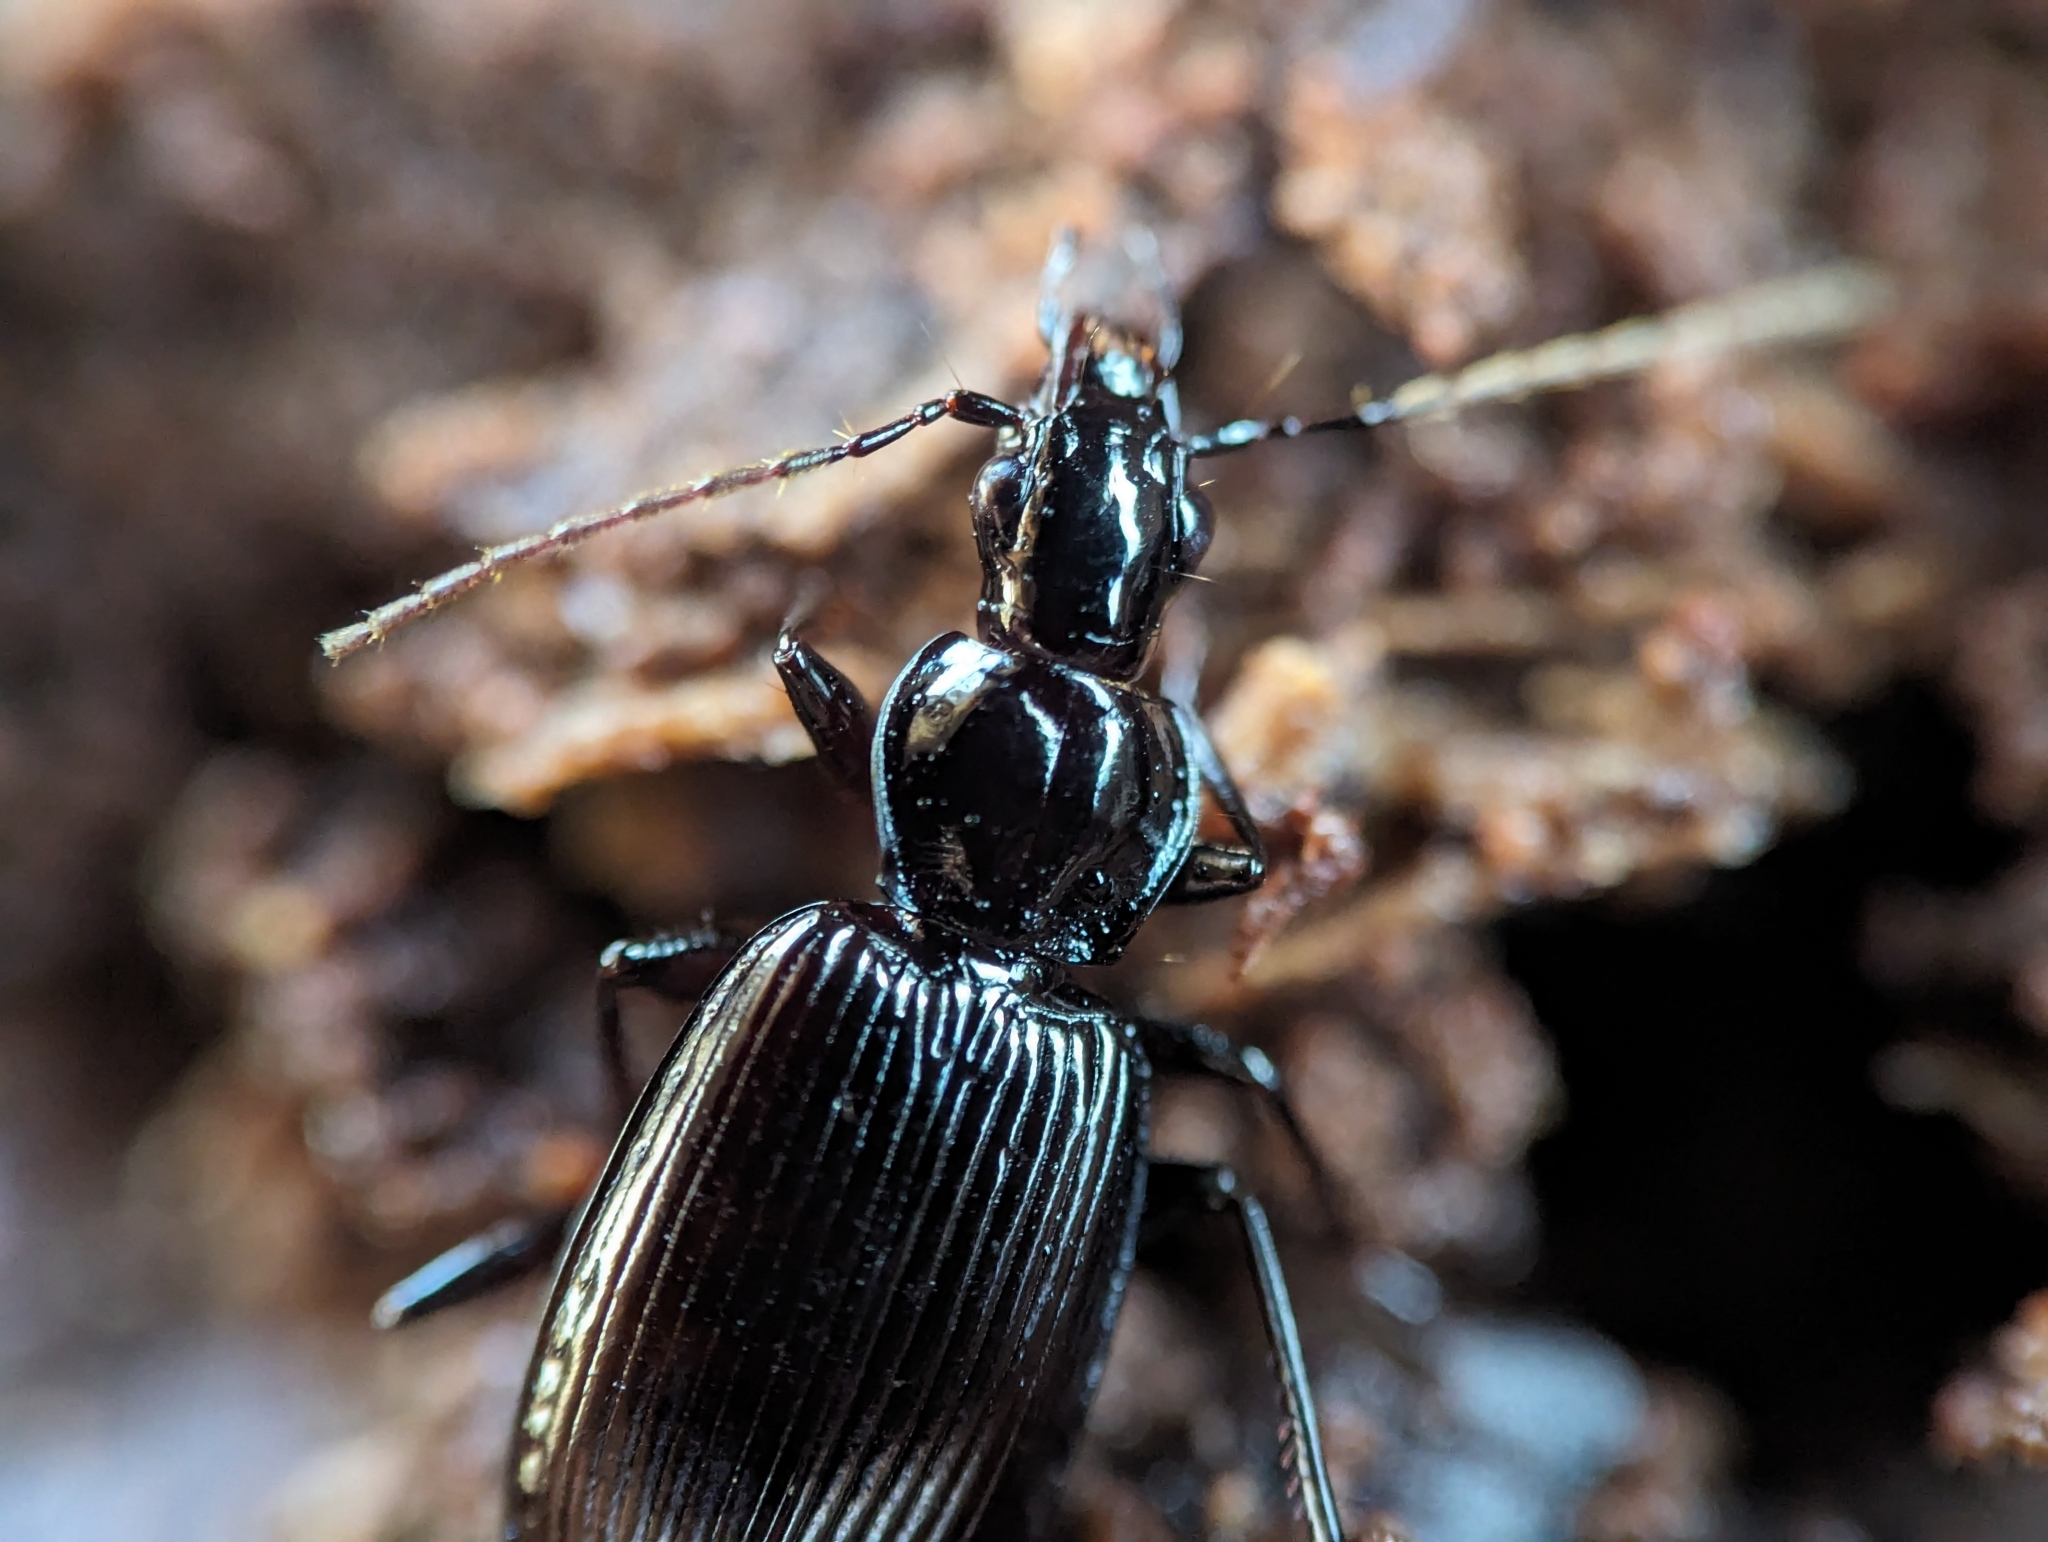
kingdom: Animalia
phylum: Arthropoda
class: Insecta
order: Coleoptera
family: Carabidae
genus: Platynus
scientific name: Platynus decentis
